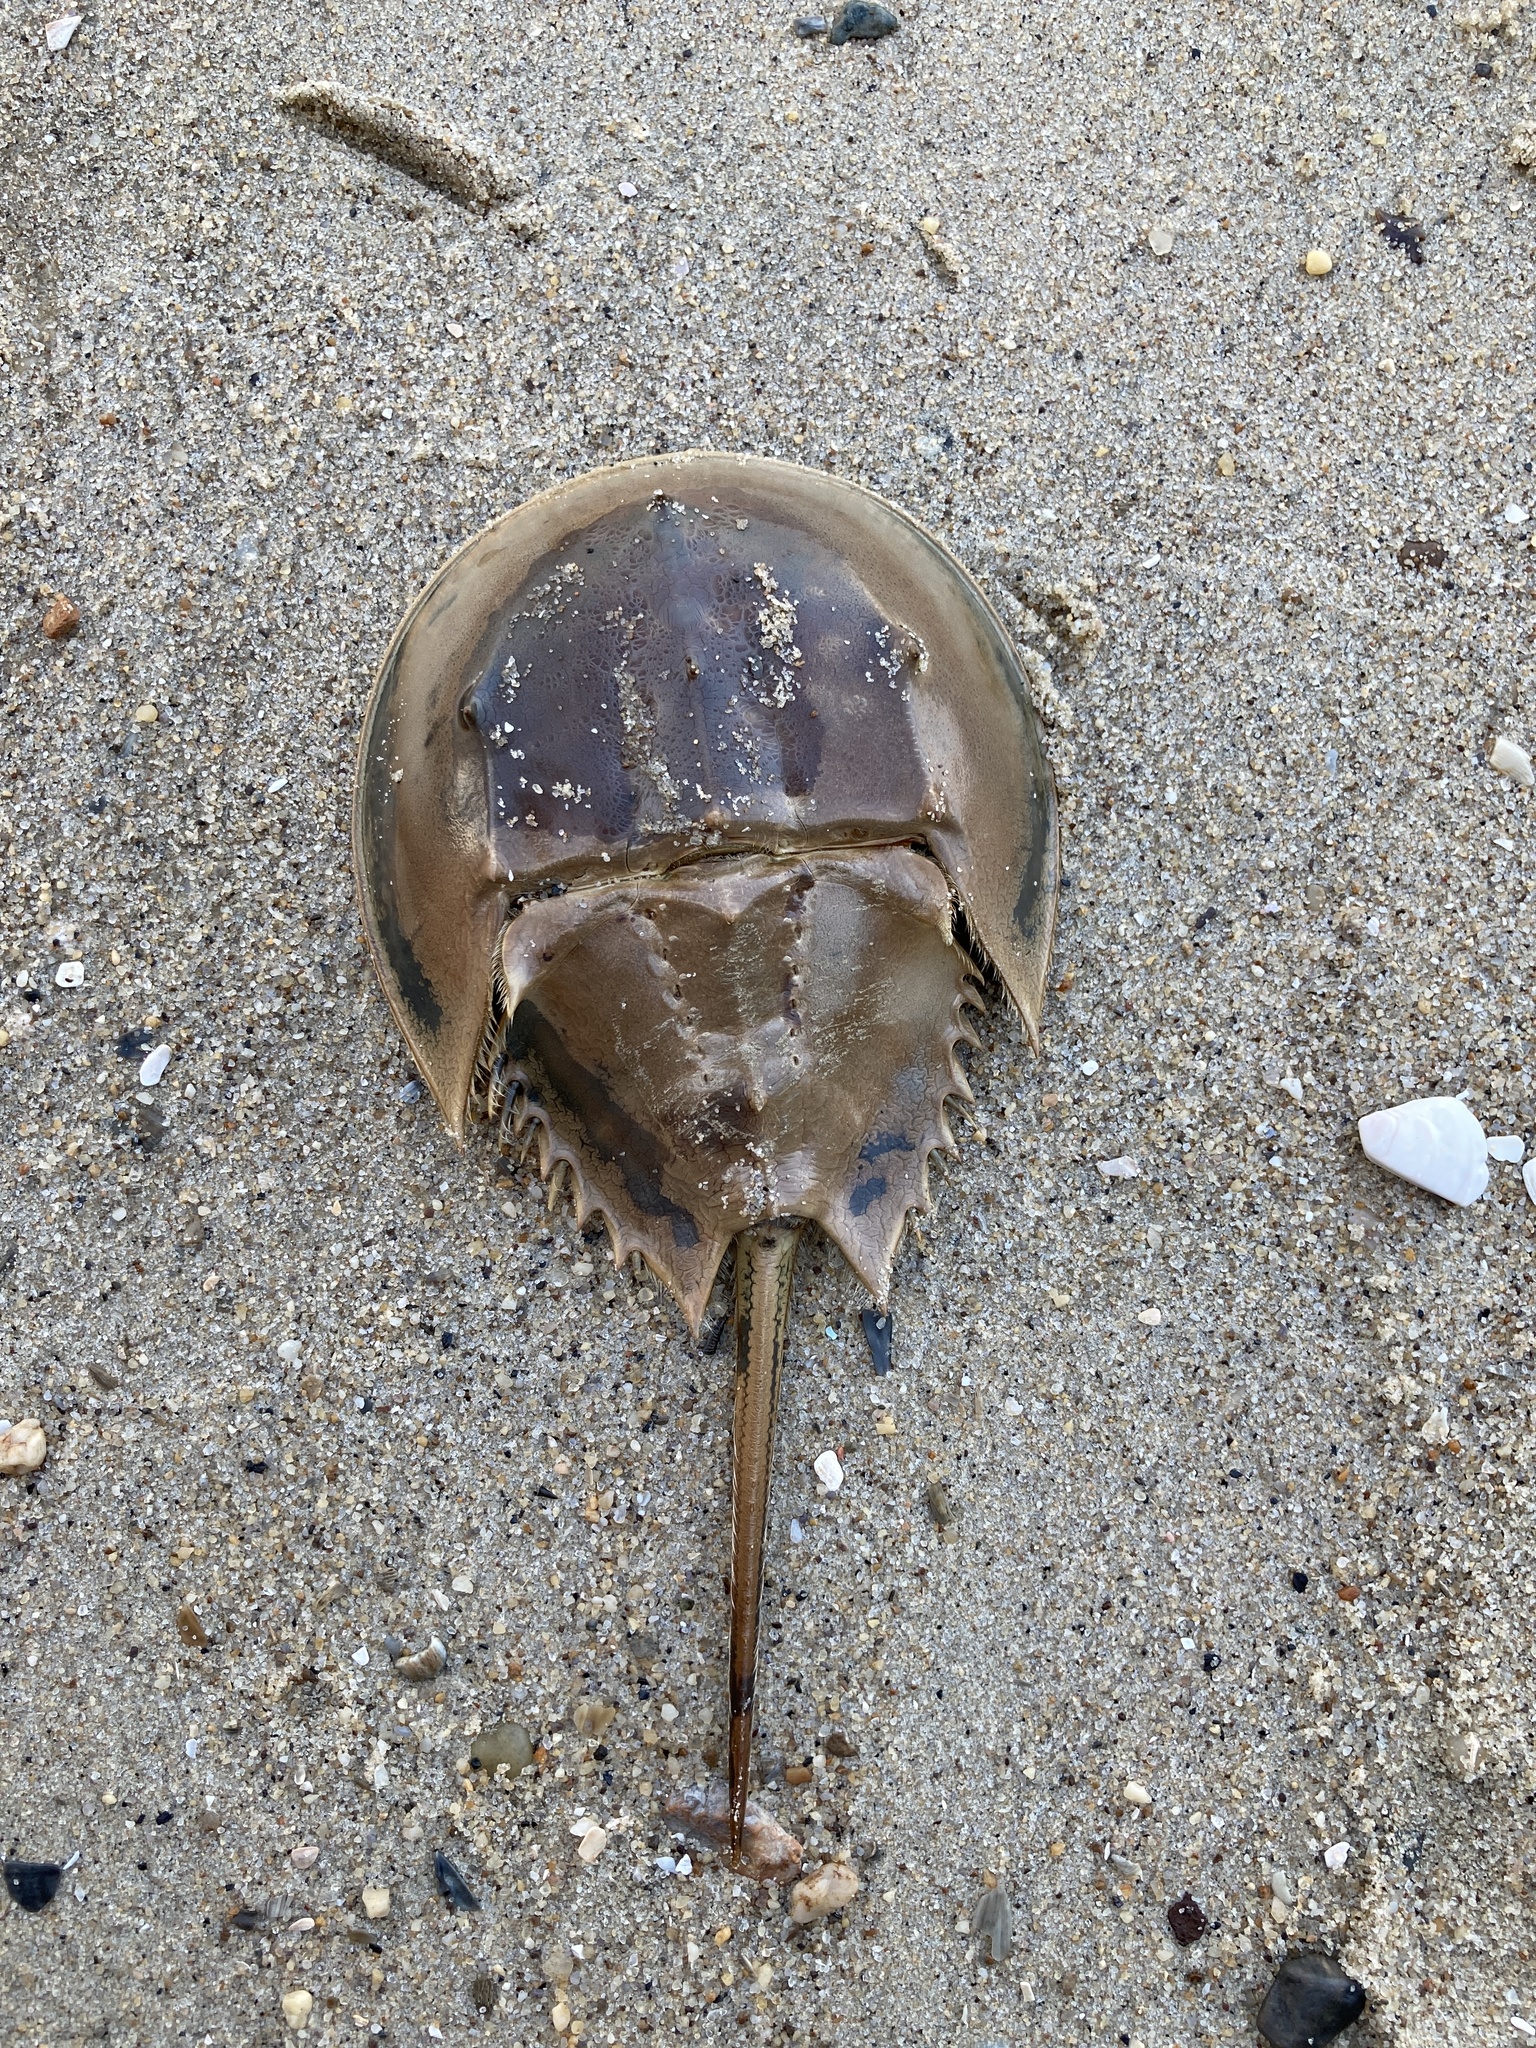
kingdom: Animalia
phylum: Arthropoda
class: Merostomata
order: Xiphosurida
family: Limulidae
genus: Limulus
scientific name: Limulus polyphemus
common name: Horseshoe crab
